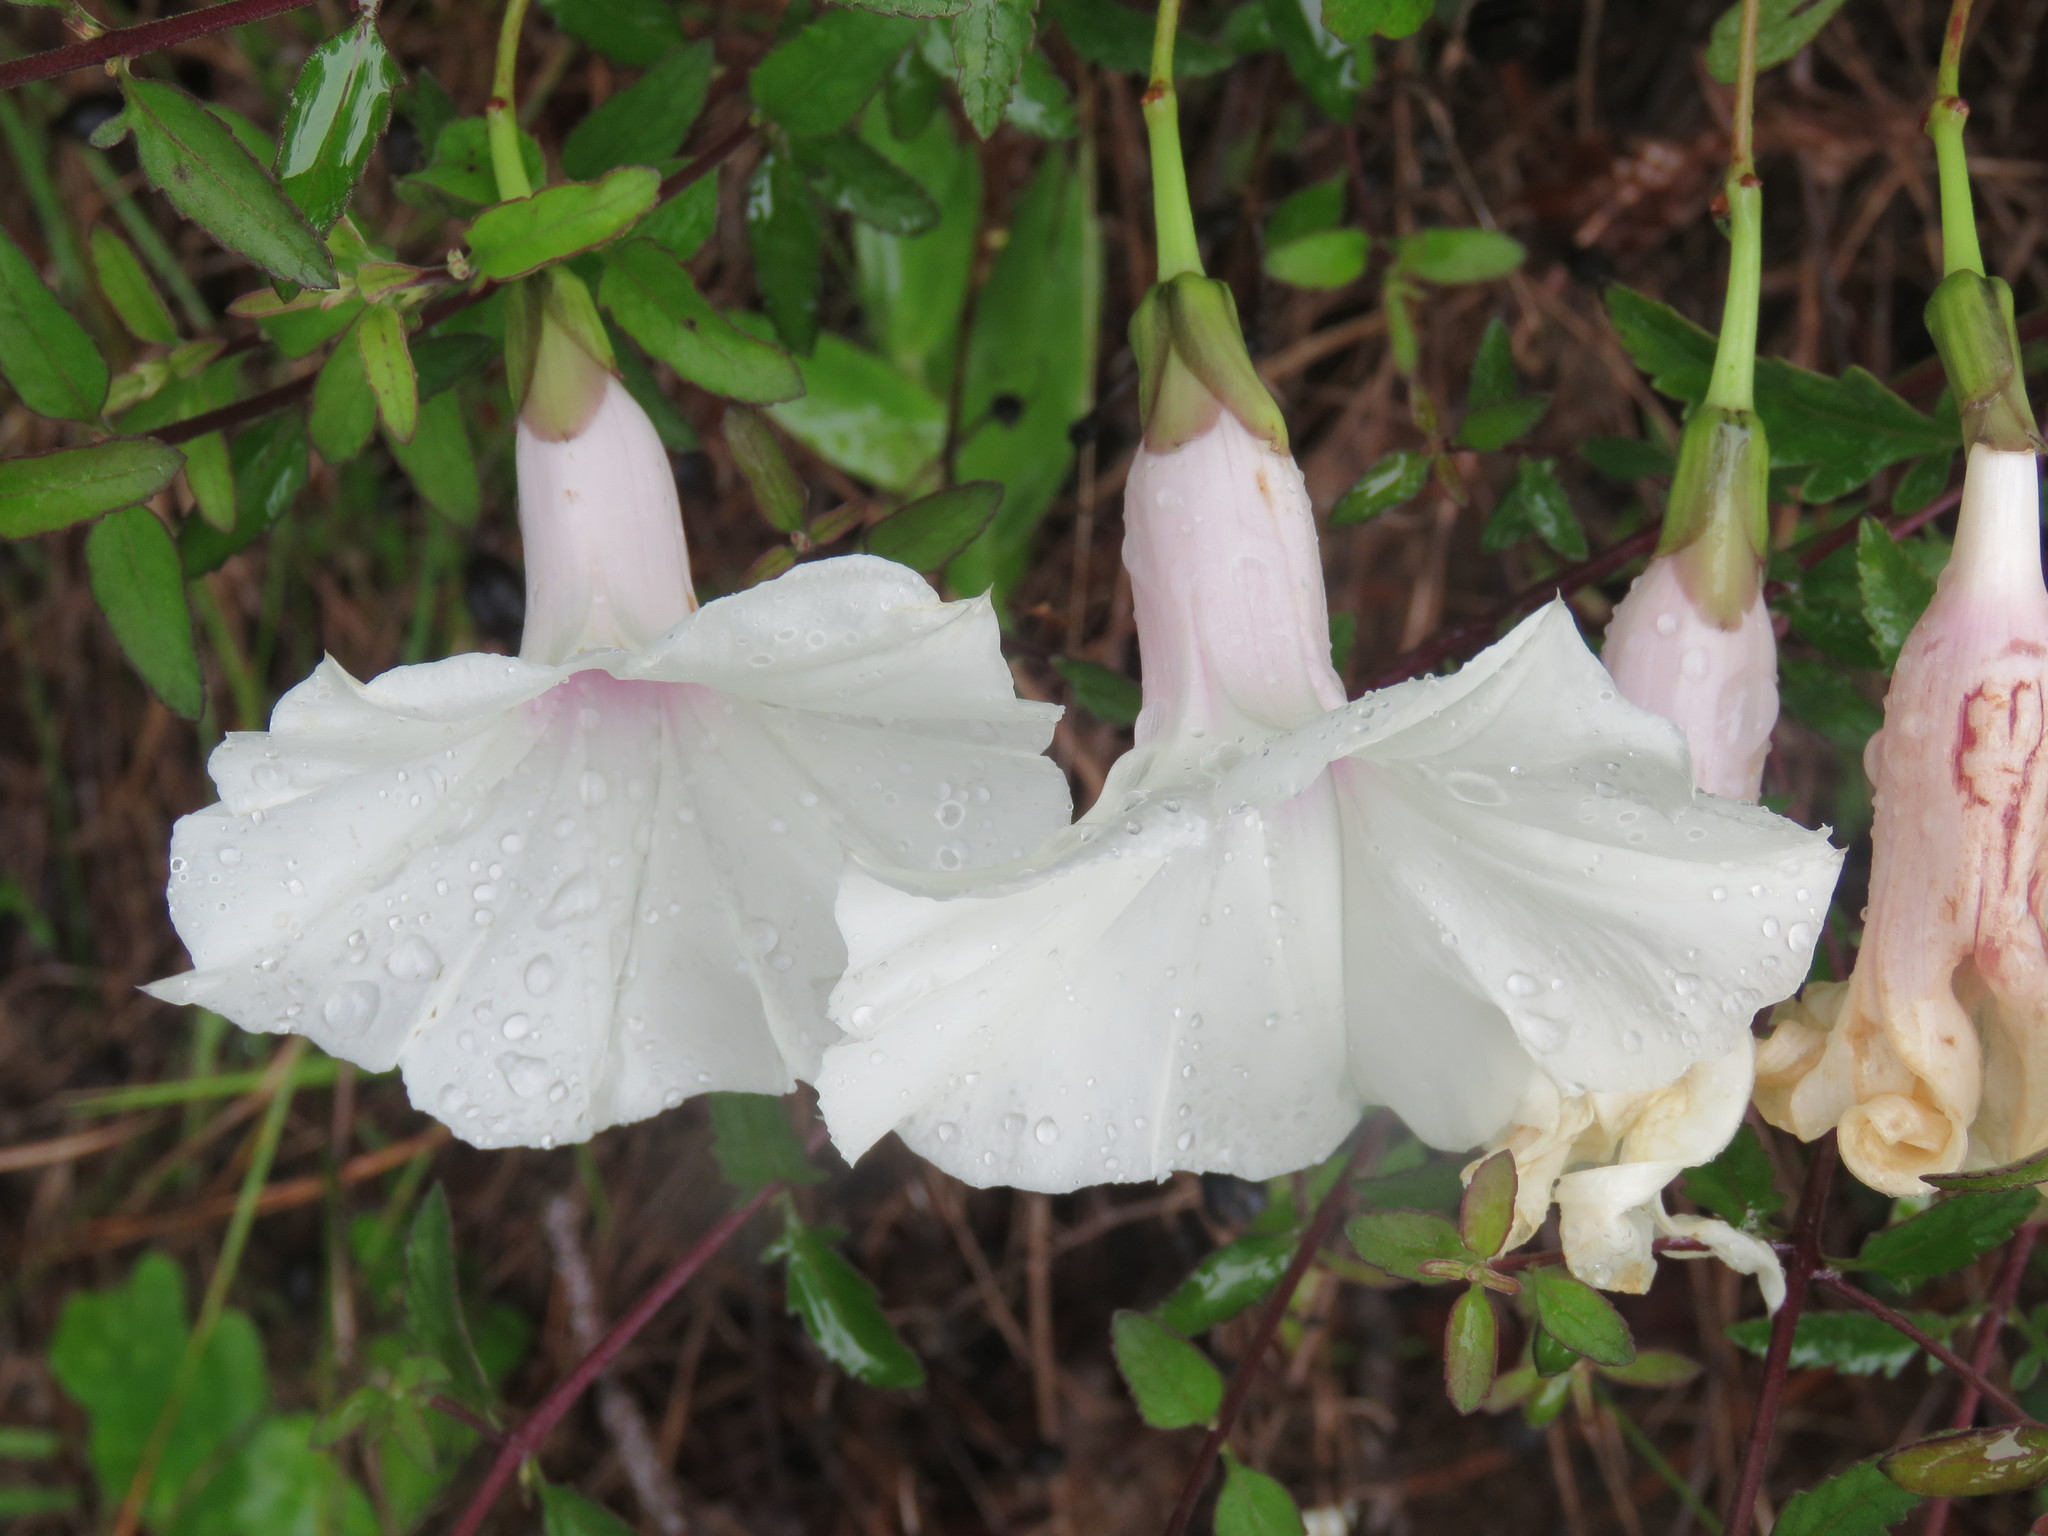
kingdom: Plantae
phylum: Tracheophyta
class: Magnoliopsida
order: Solanales
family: Convolvulaceae
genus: Ipomoea
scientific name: Ipomoea pandurata
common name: Man-of-the-earth
